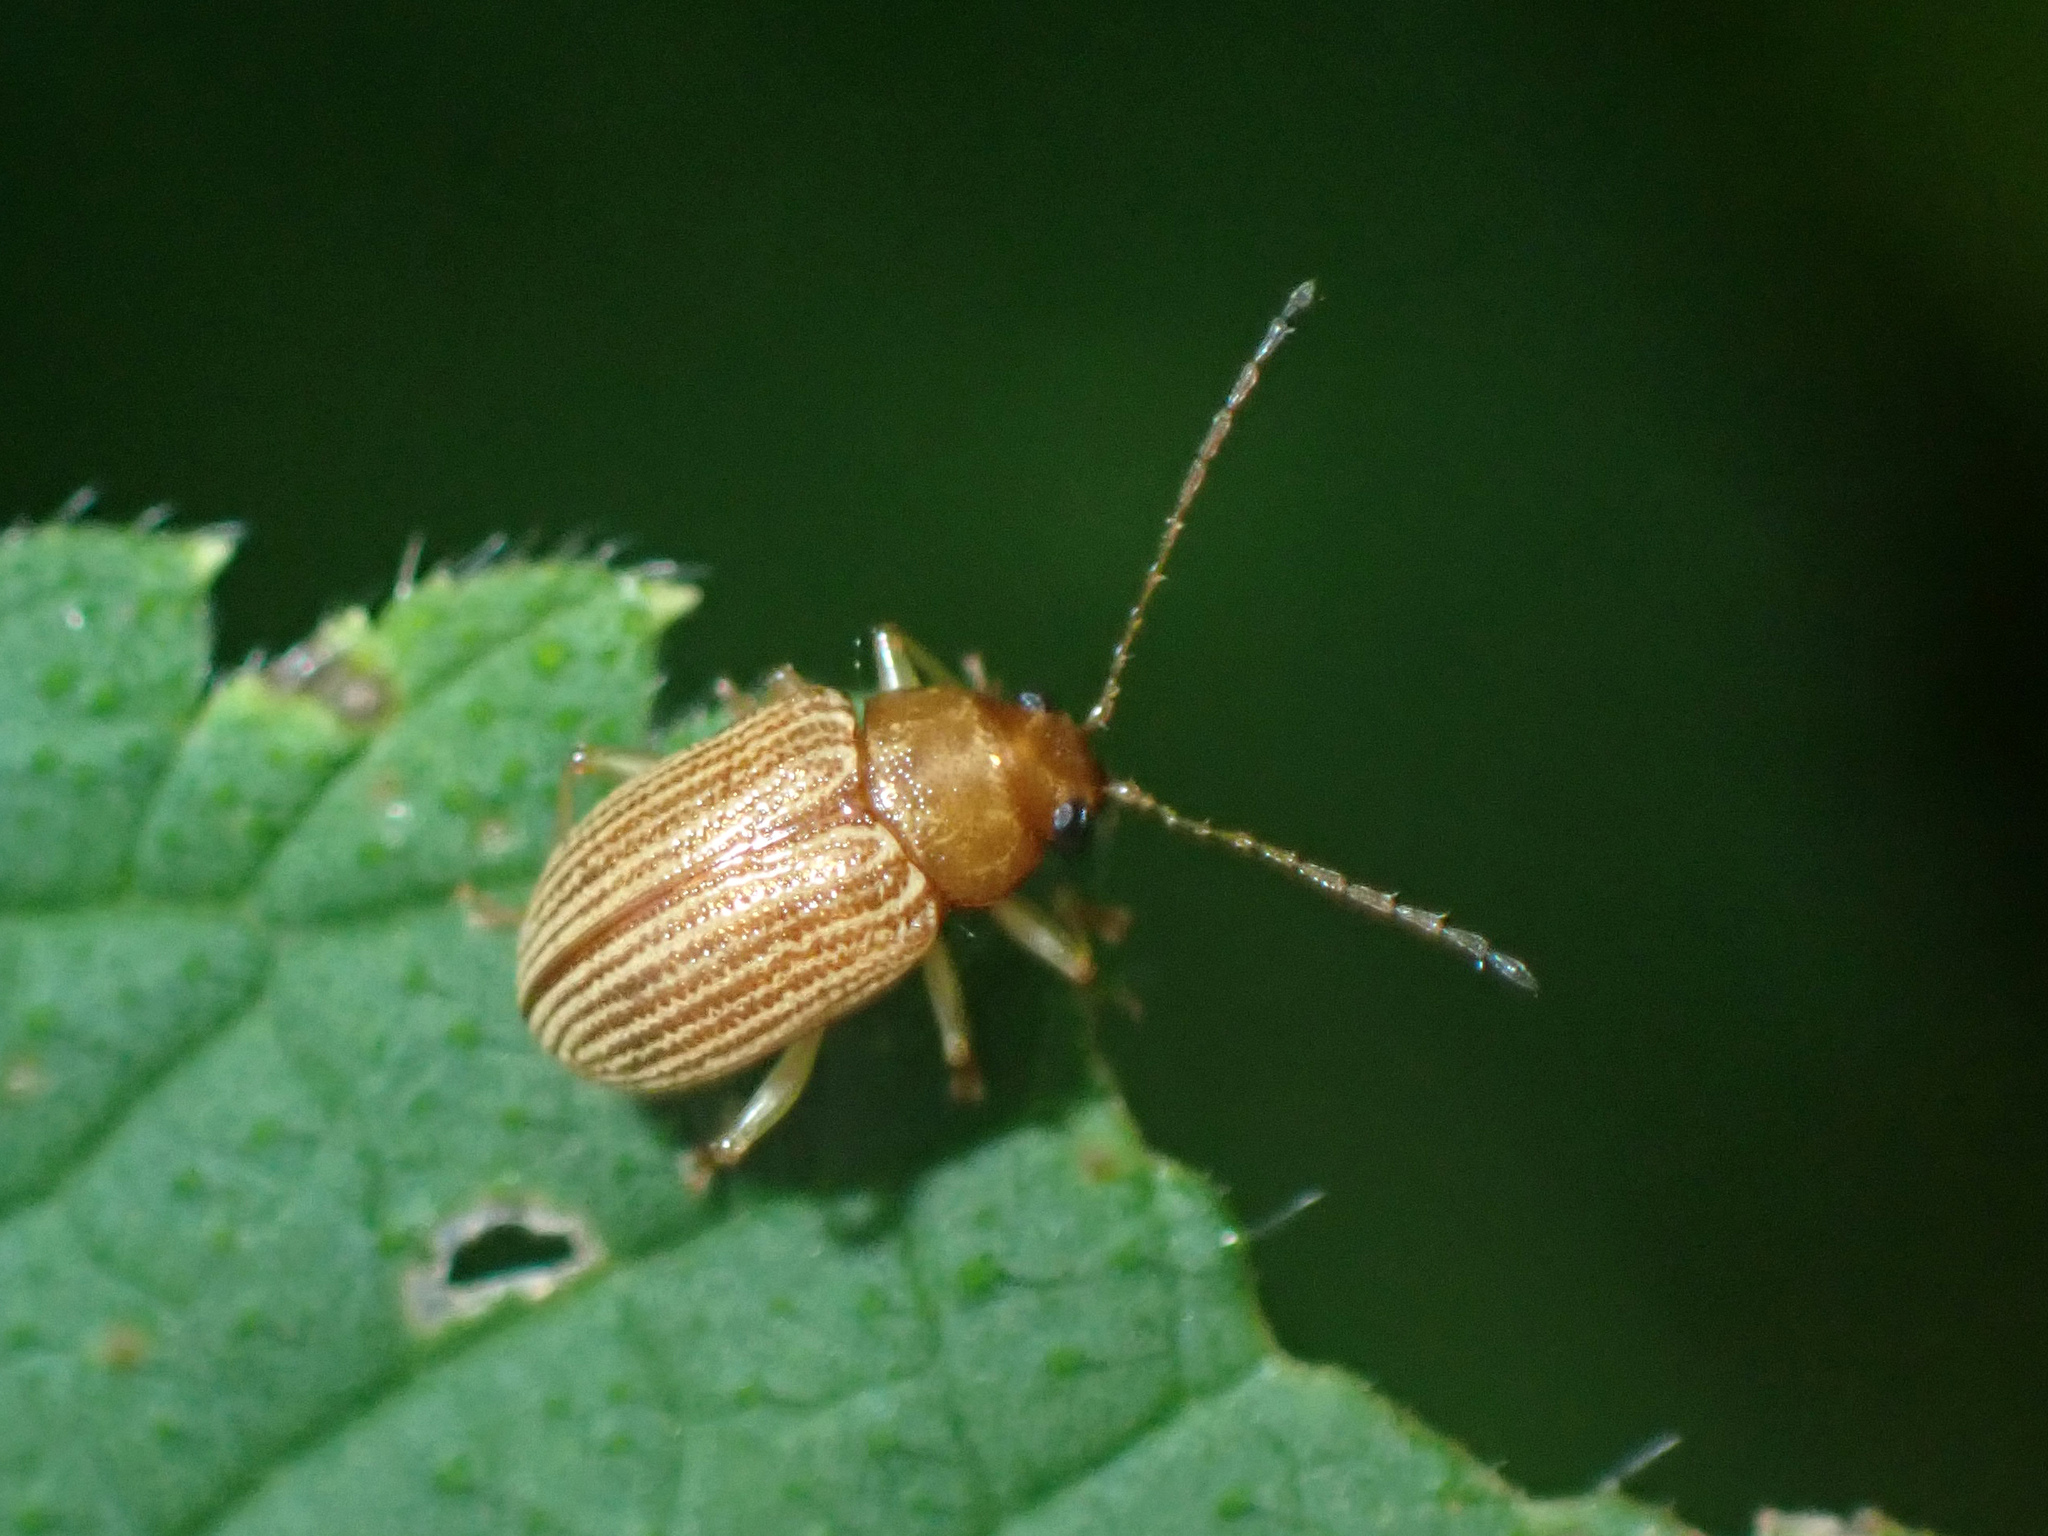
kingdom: Animalia
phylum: Arthropoda
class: Insecta
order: Coleoptera
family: Chrysomelidae
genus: Colaspis
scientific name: Colaspis brunnea
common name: Grape colaspis
